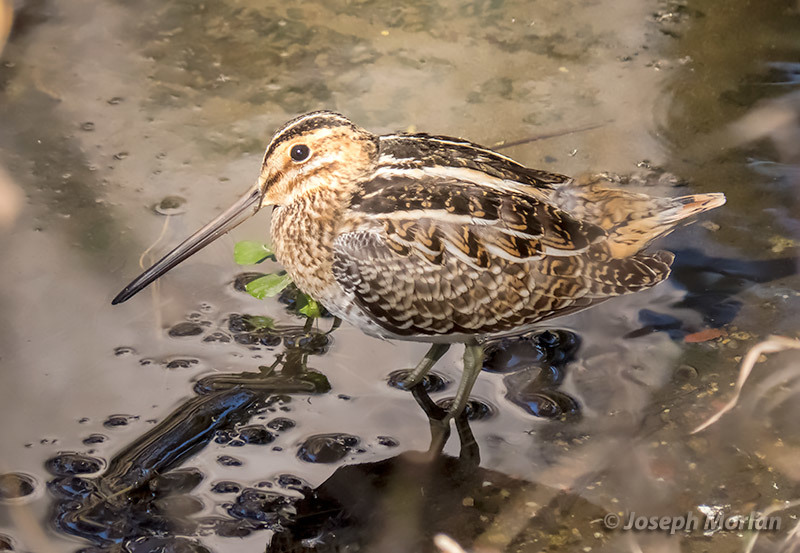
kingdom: Animalia
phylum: Chordata
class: Aves
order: Charadriiformes
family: Scolopacidae
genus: Gallinago
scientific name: Gallinago delicata
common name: Wilson's snipe
